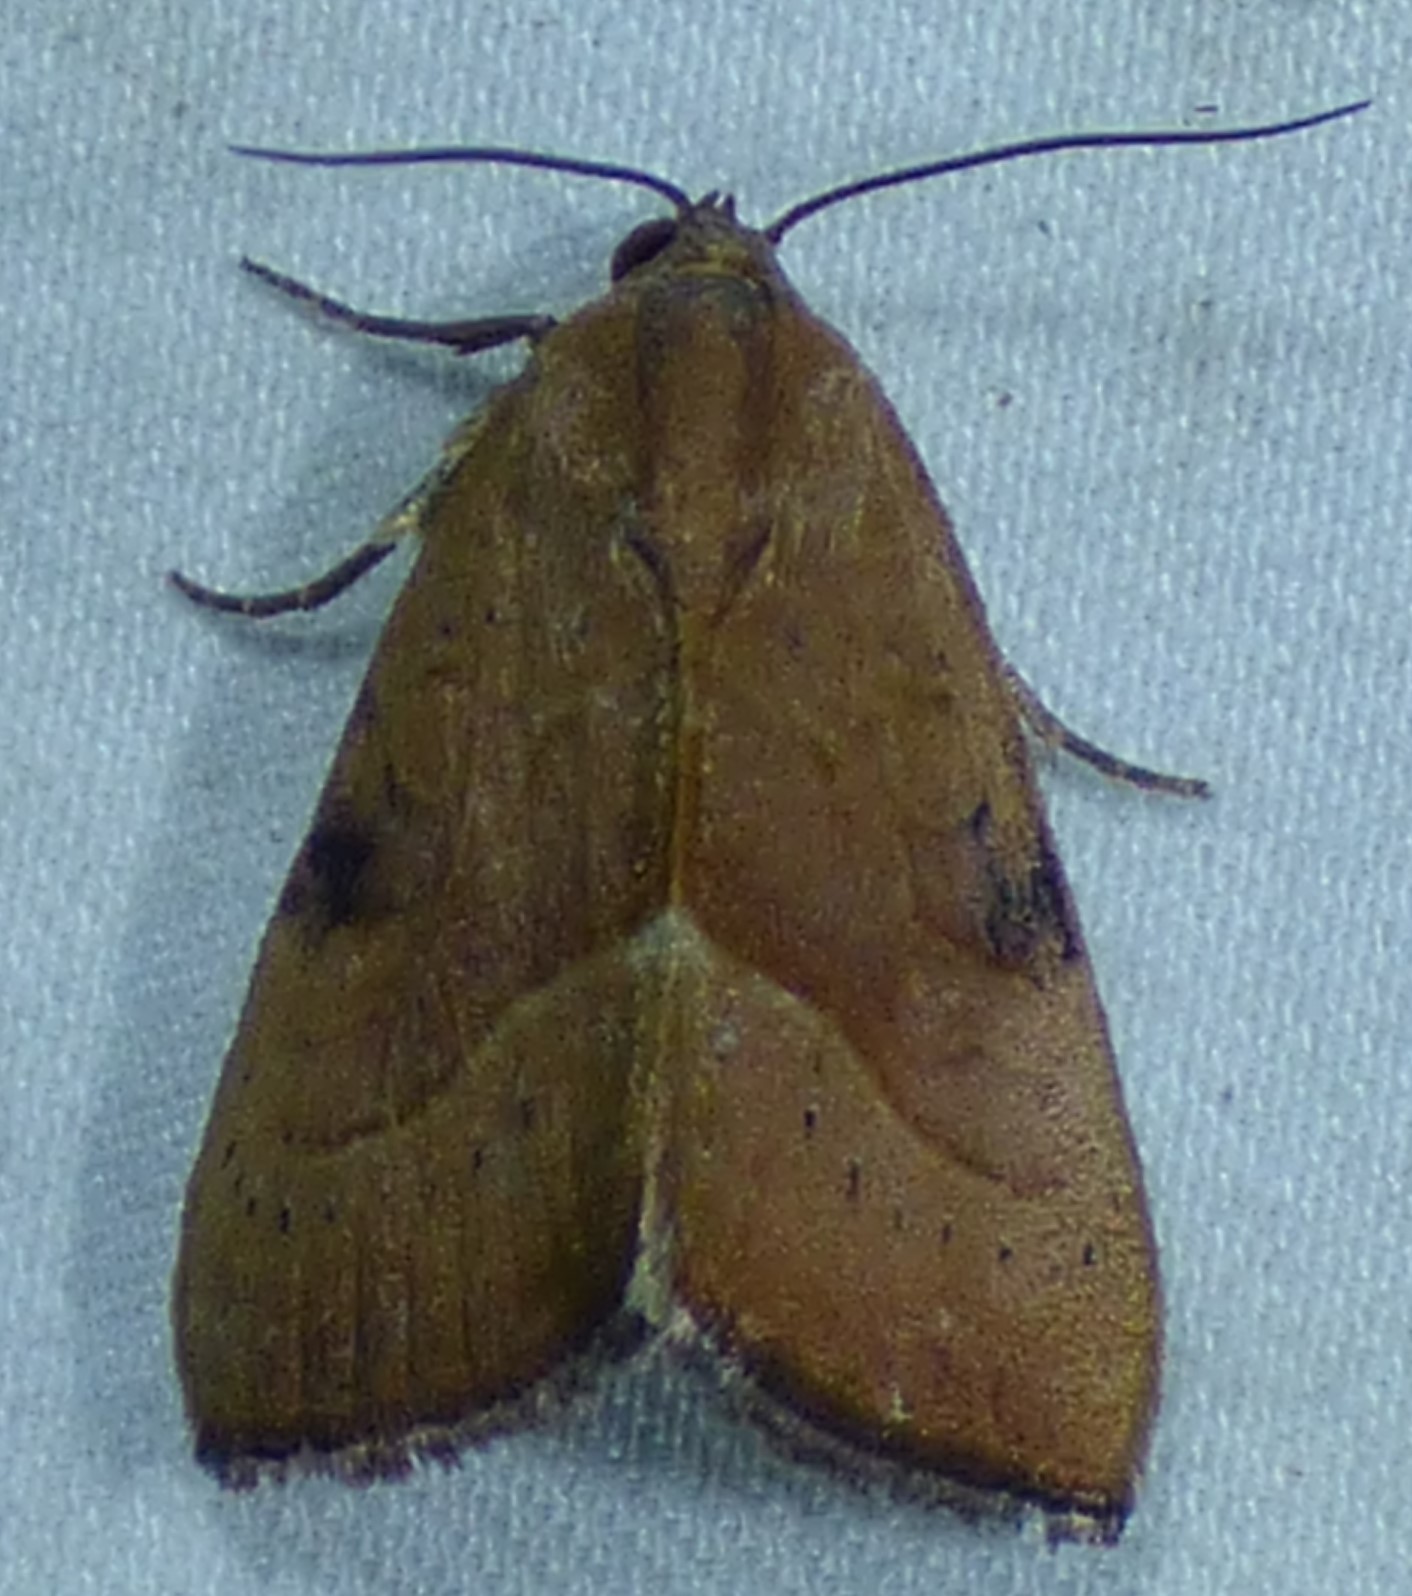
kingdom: Animalia
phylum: Arthropoda
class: Insecta
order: Lepidoptera
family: Noctuidae
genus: Galgula
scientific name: Galgula partita
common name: Wedgeling
